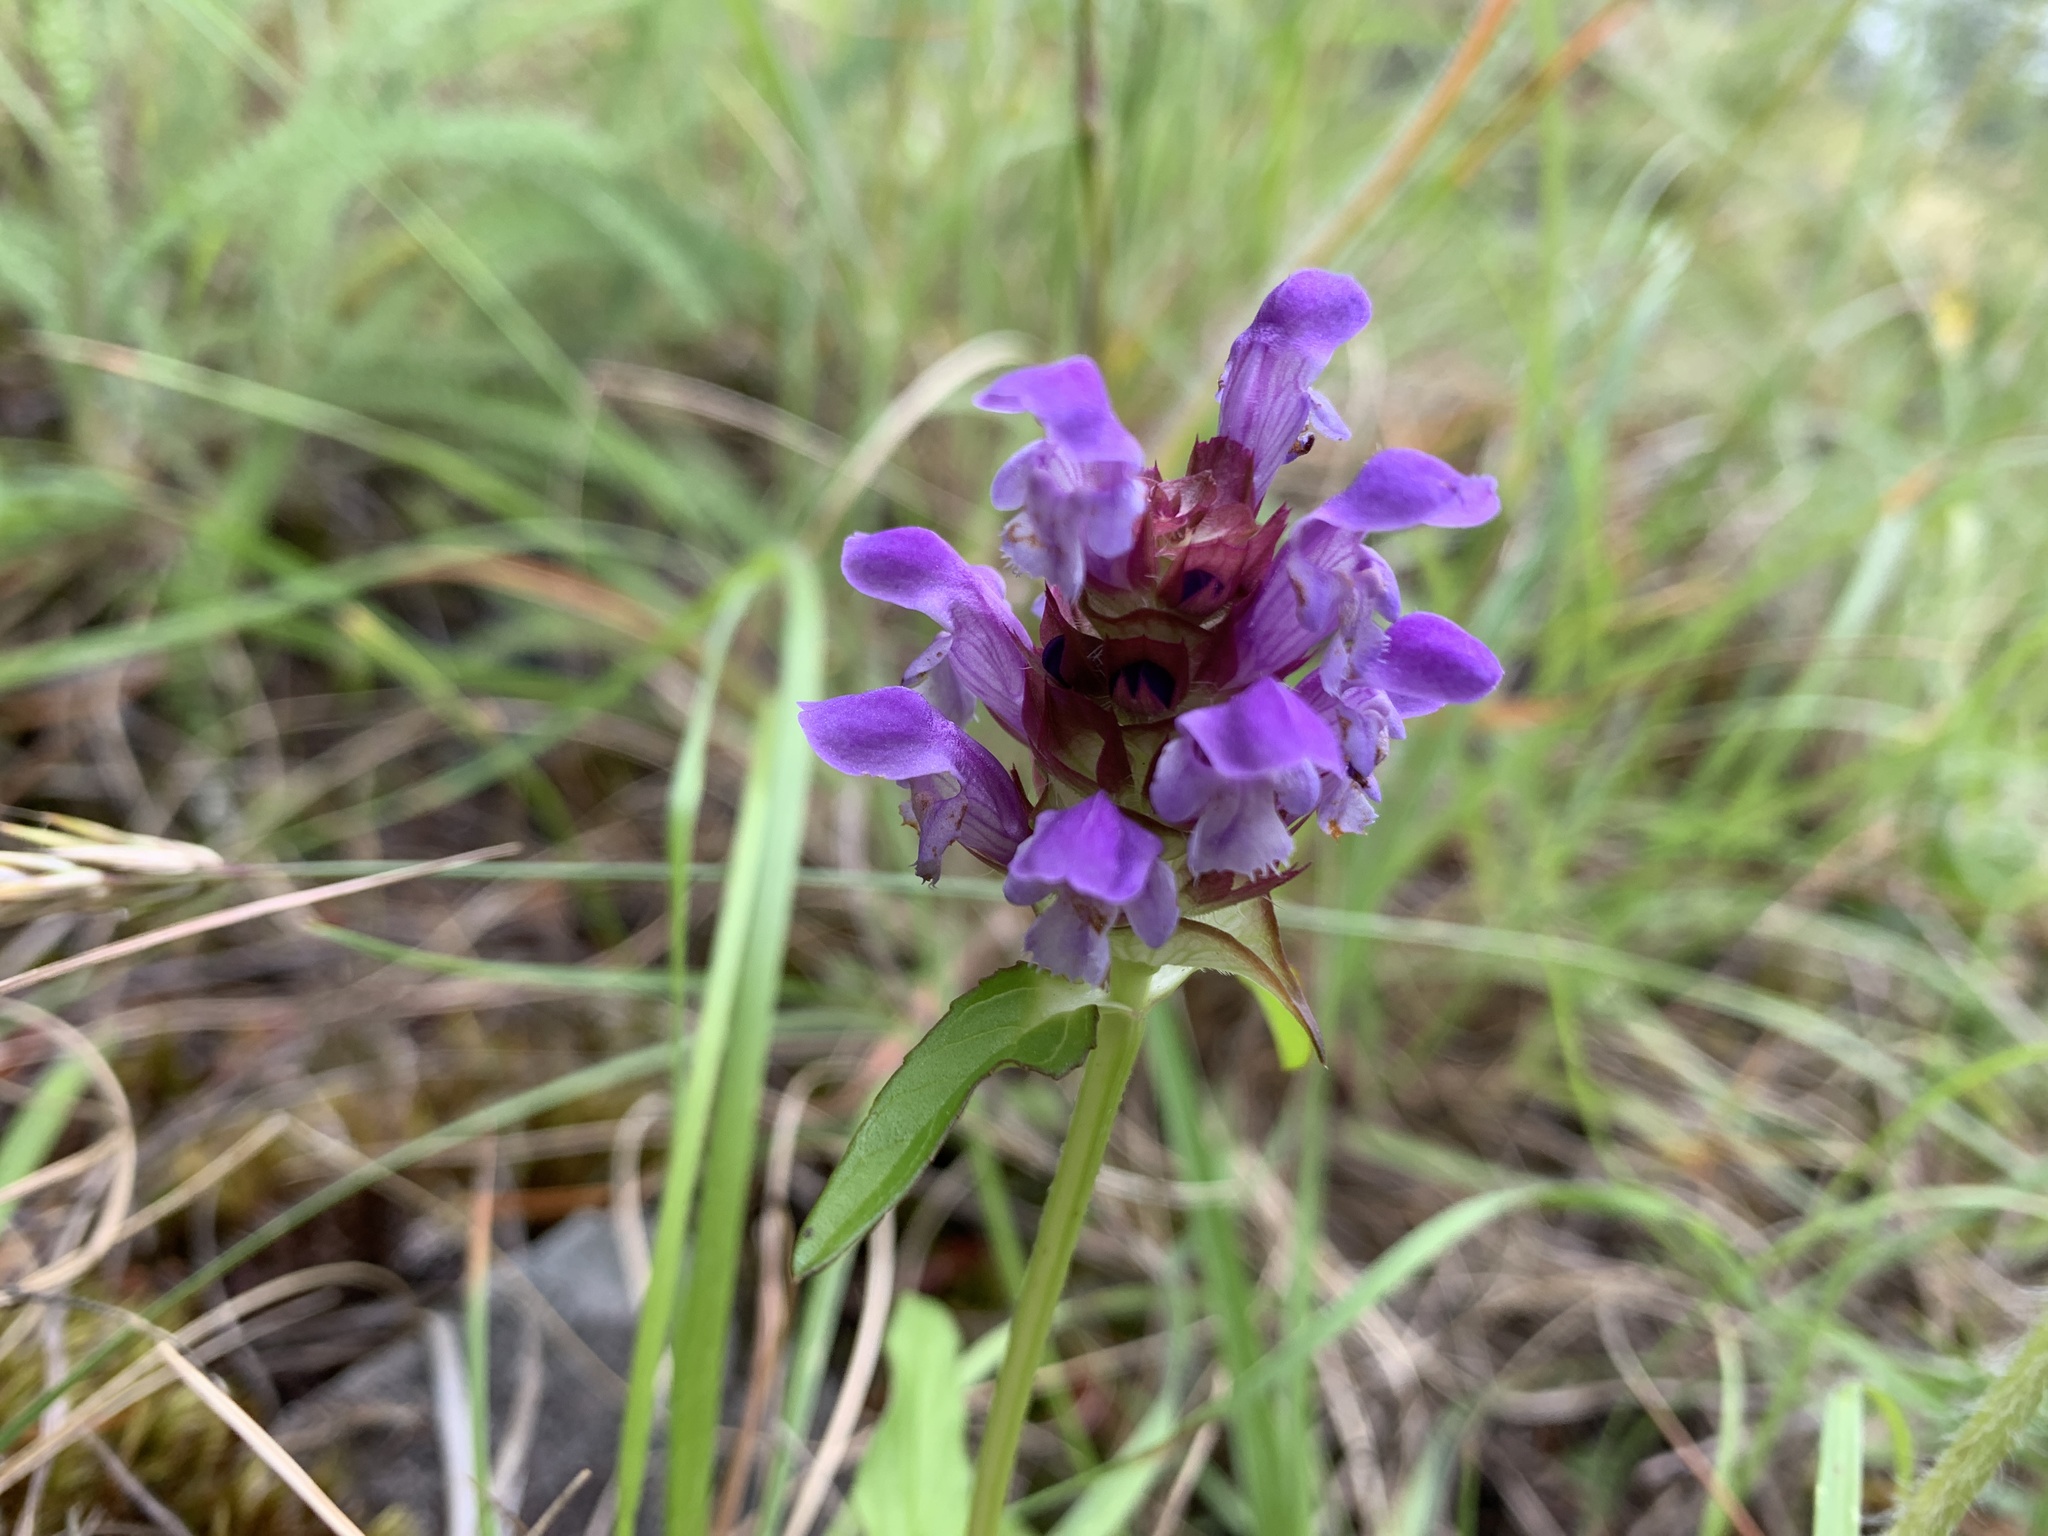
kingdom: Plantae
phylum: Tracheophyta
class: Magnoliopsida
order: Lamiales
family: Lamiaceae
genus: Prunella
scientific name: Prunella vulgaris
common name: Heal-all
